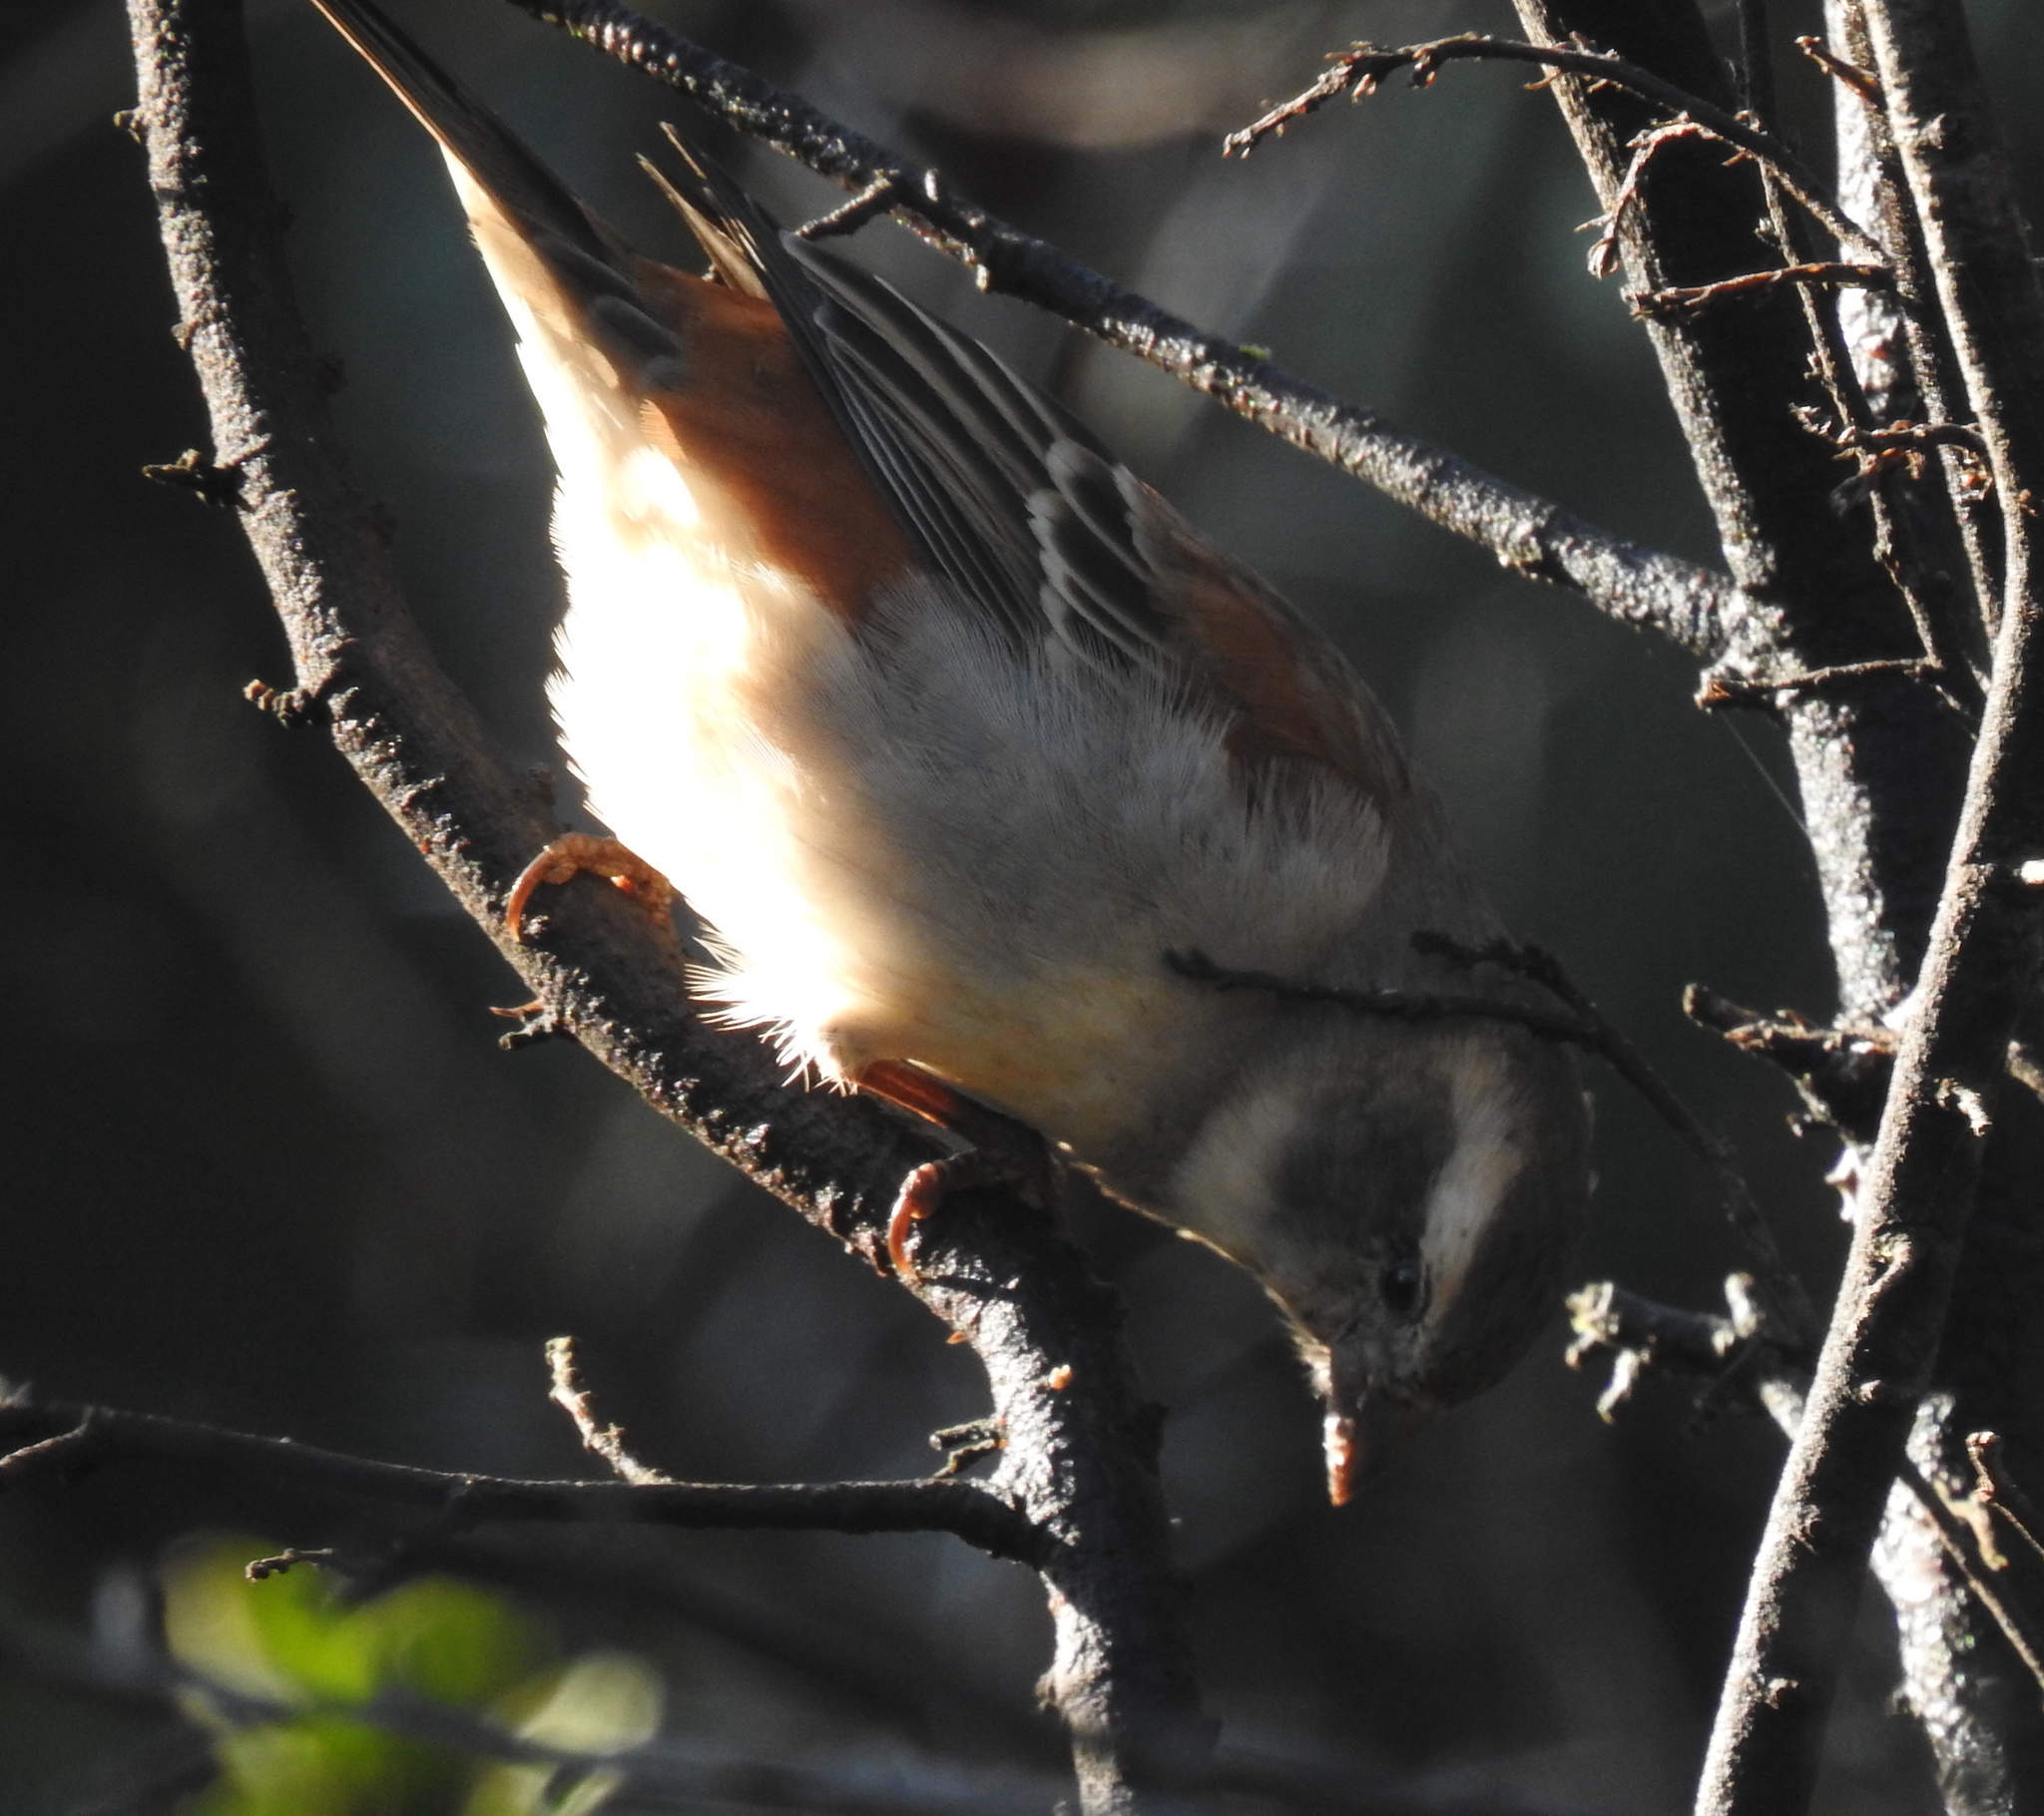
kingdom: Animalia
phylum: Chordata
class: Aves
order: Passeriformes
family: Passeridae
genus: Passer
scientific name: Passer melanurus
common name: Cape sparrow
